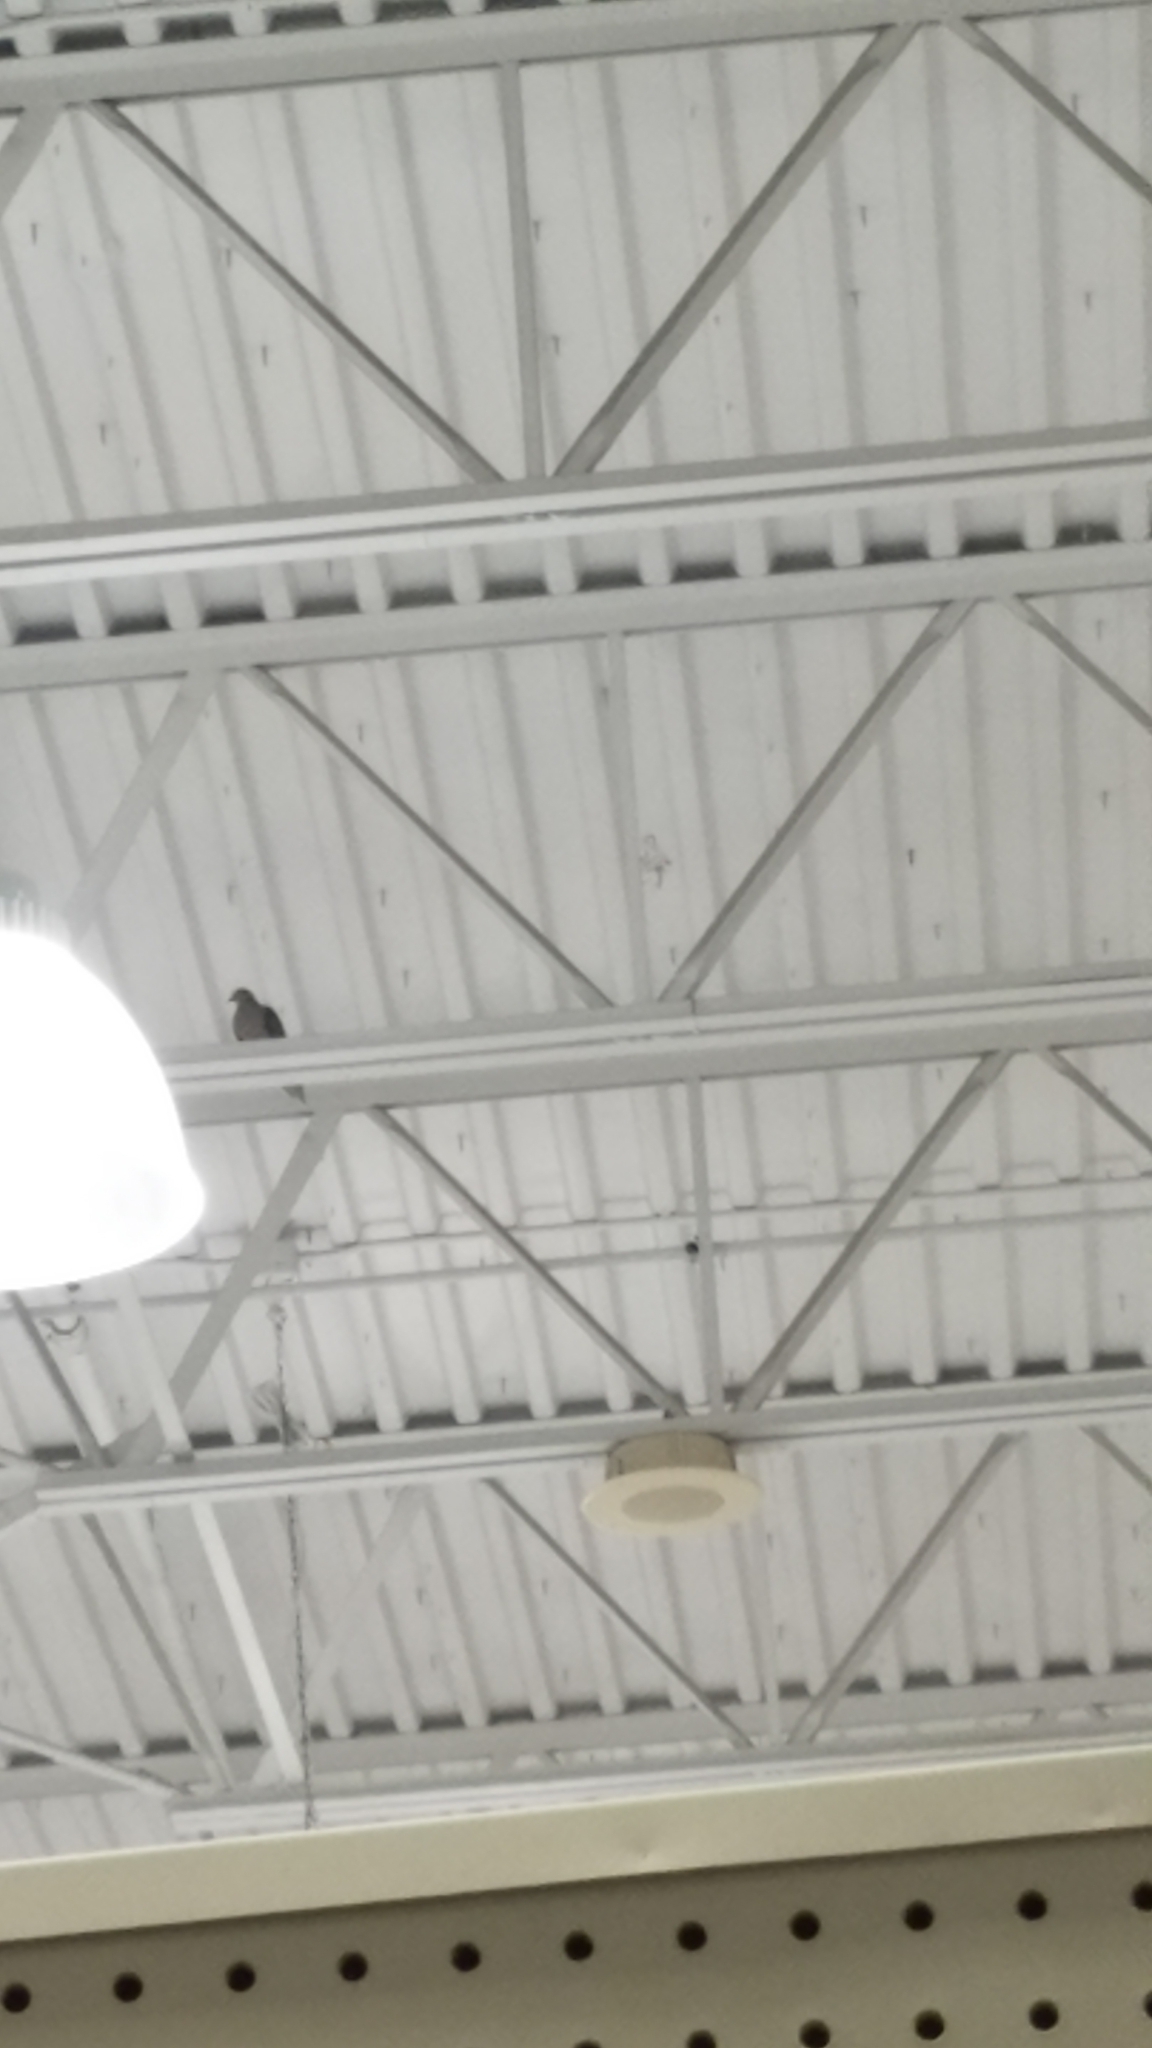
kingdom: Animalia
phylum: Chordata
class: Aves
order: Columbiformes
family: Columbidae
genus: Zenaida
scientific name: Zenaida macroura
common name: Mourning dove
